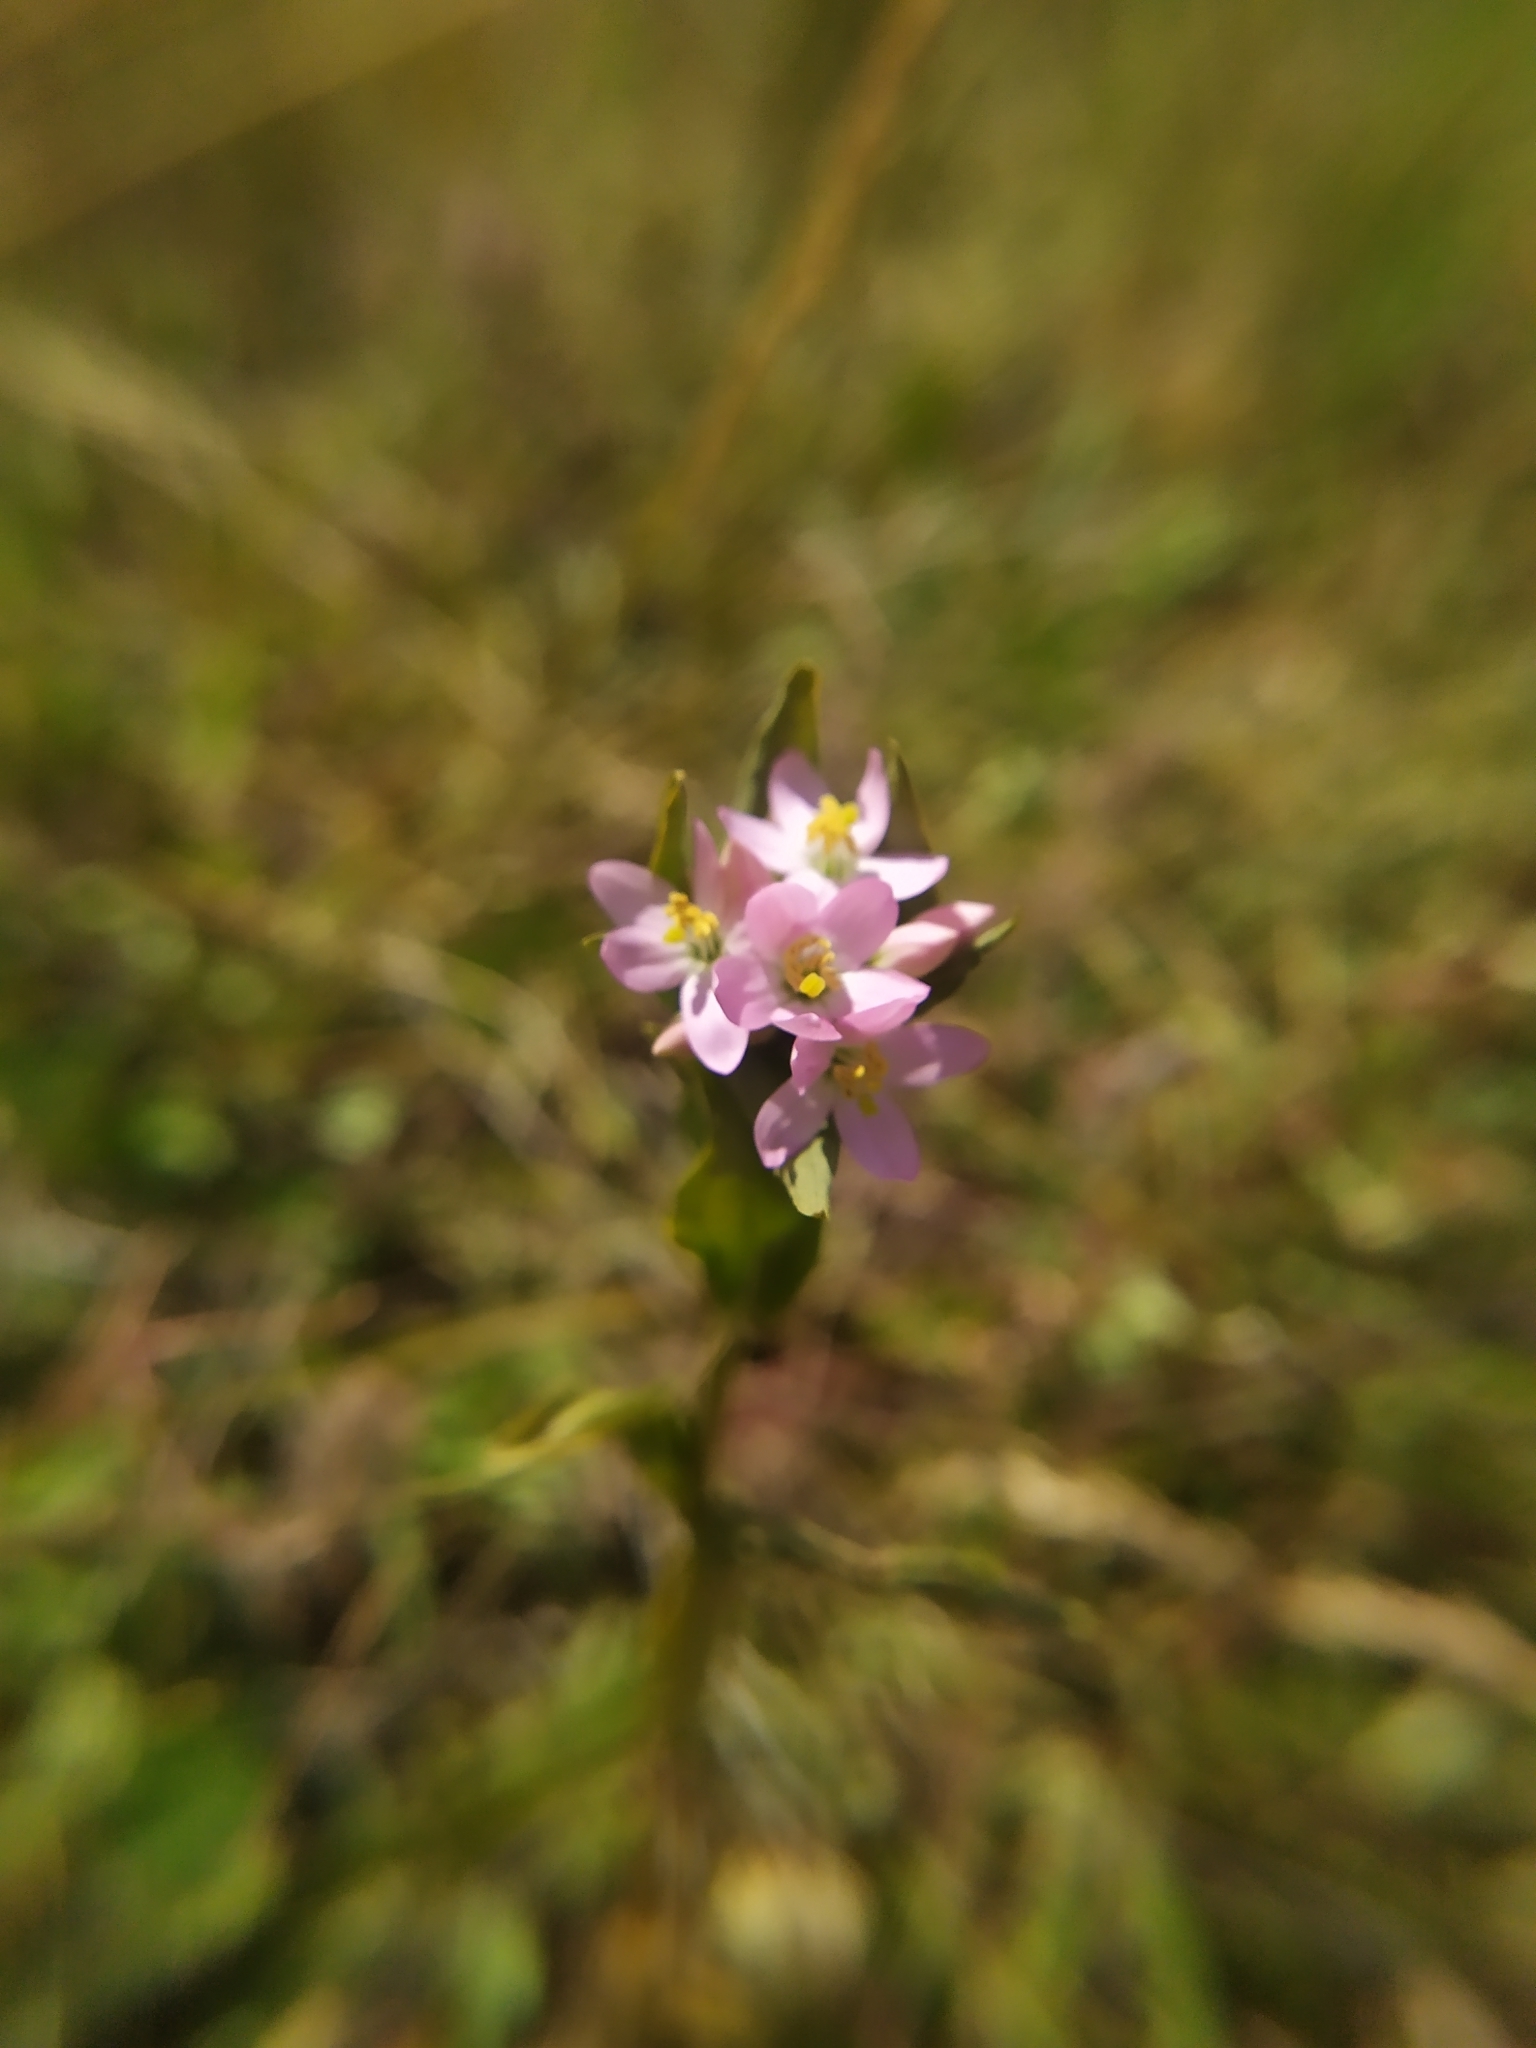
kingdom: Plantae
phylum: Tracheophyta
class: Magnoliopsida
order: Gentianales
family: Gentianaceae
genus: Centaurium
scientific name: Centaurium erythraea
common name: Common centaury
